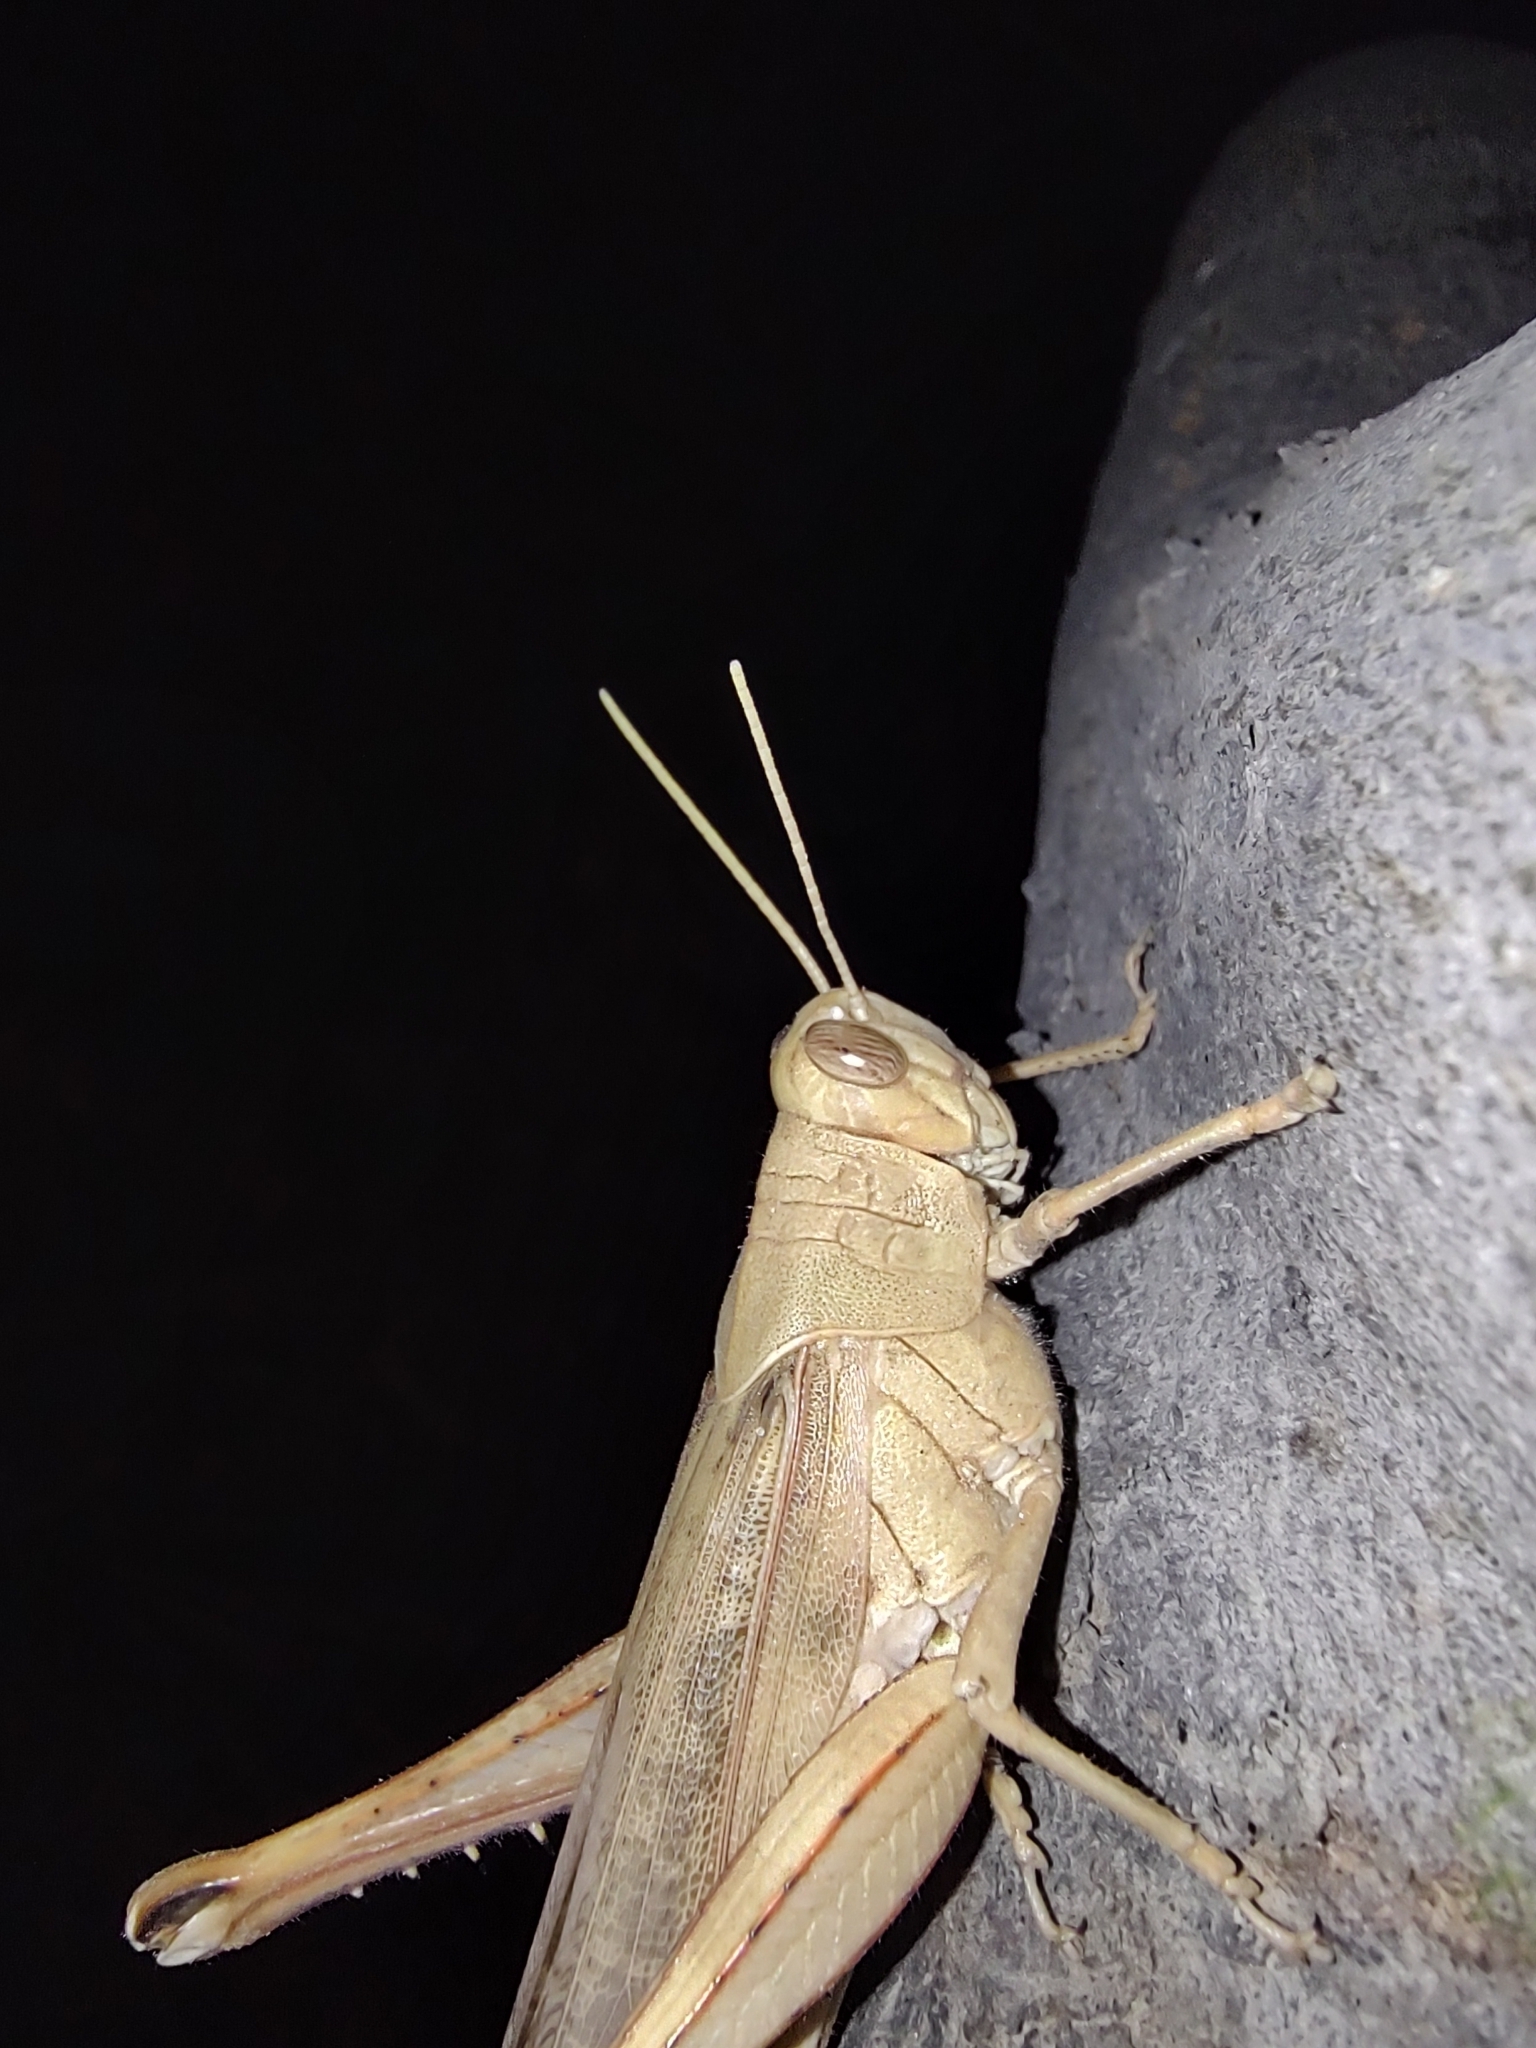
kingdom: Animalia
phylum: Arthropoda
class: Insecta
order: Orthoptera
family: Acrididae
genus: Schistocerca
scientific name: Schistocerca nitens
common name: Vagrant grasshopper
